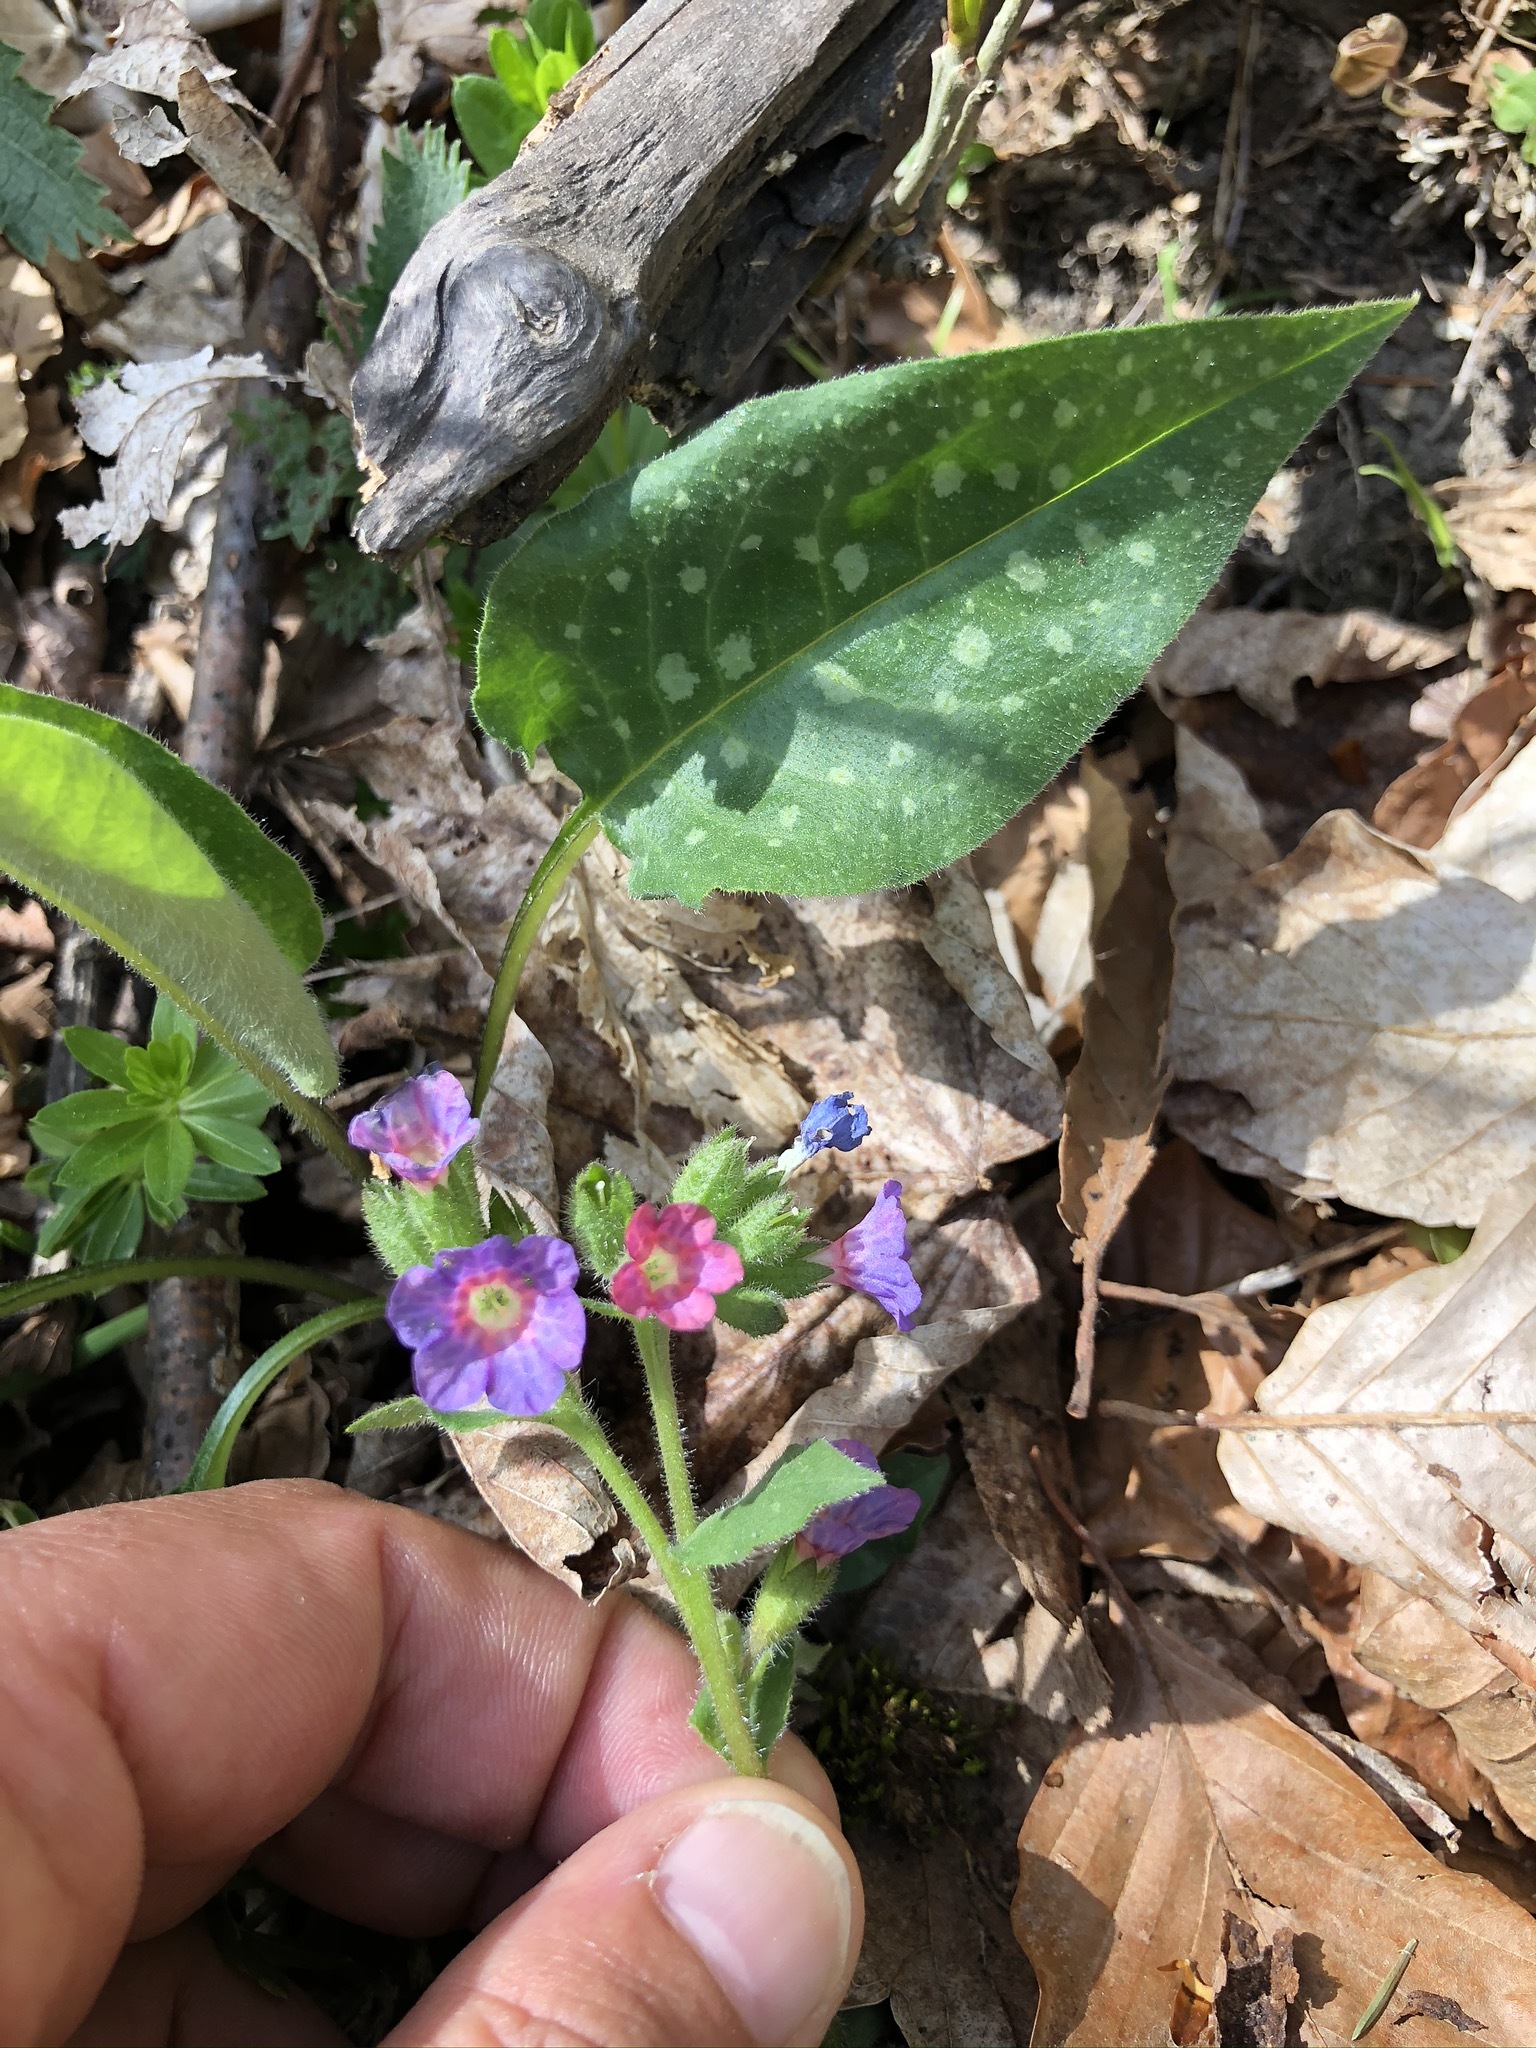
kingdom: Plantae
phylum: Tracheophyta
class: Magnoliopsida
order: Boraginales
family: Boraginaceae
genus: Pulmonaria
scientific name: Pulmonaria officinalis
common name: Lungwort
